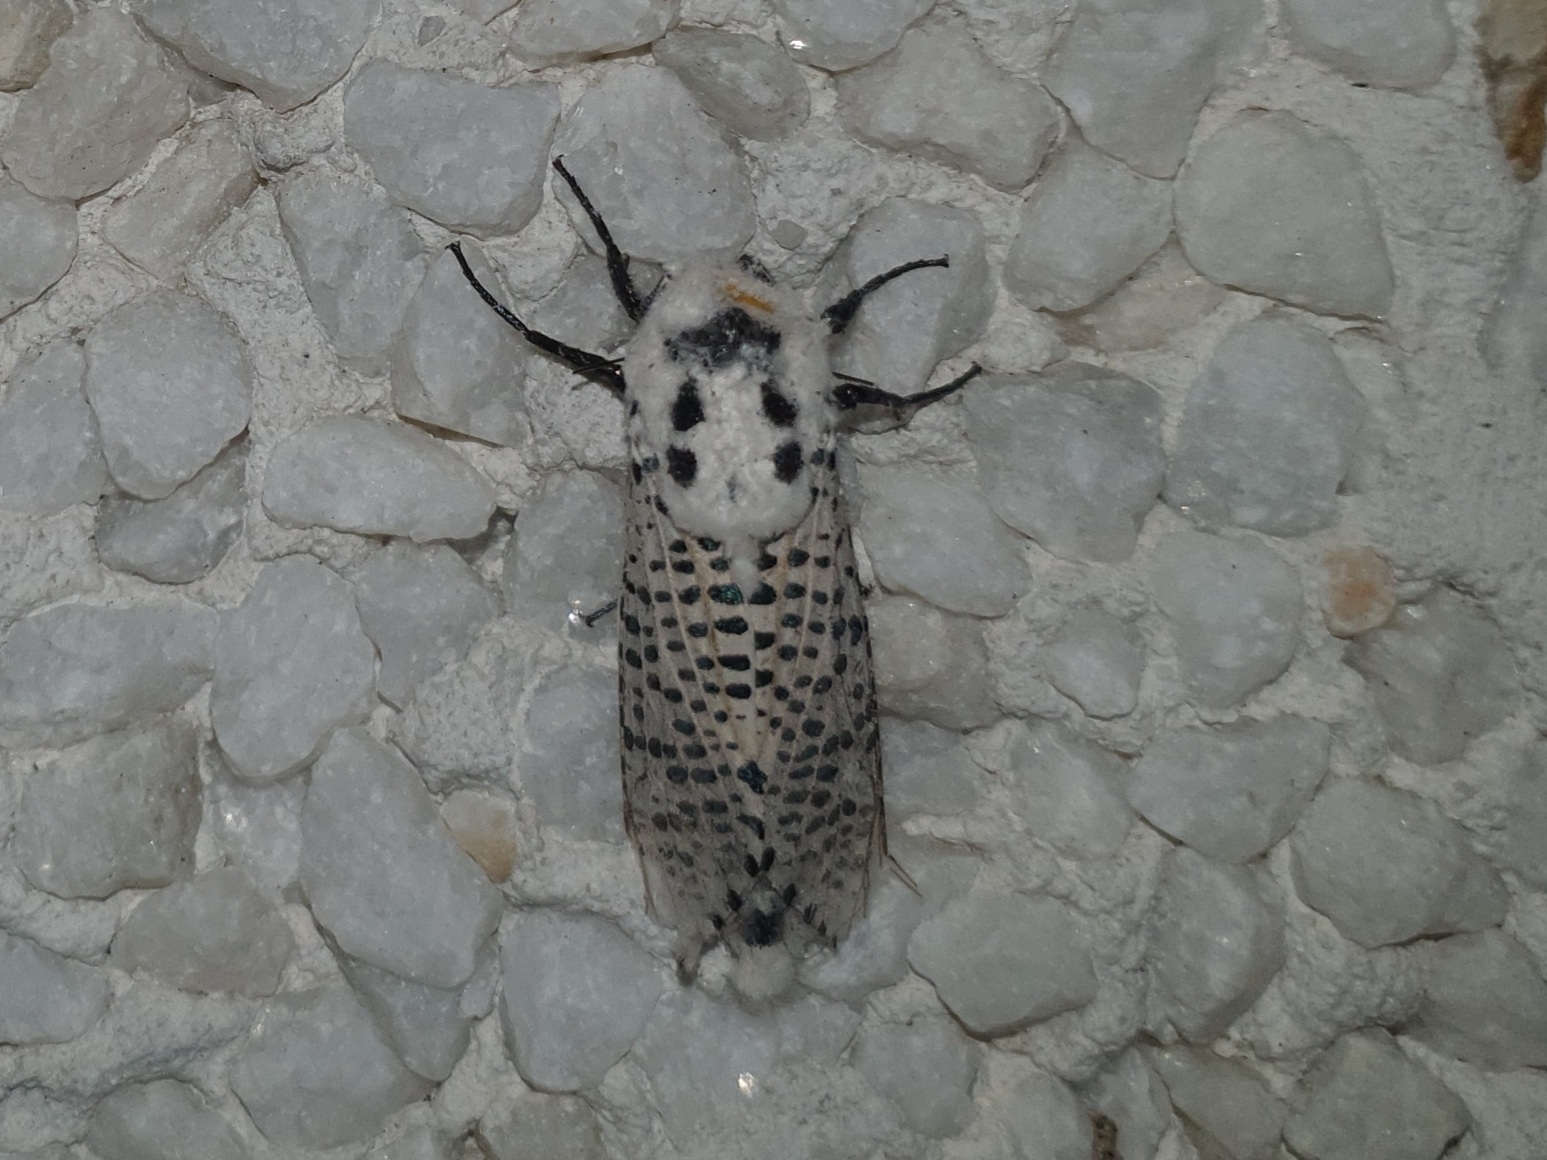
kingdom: Animalia
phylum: Arthropoda
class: Insecta
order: Lepidoptera
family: Cossidae
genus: Zeuzera
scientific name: Zeuzera pyrina
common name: Leopard moth
